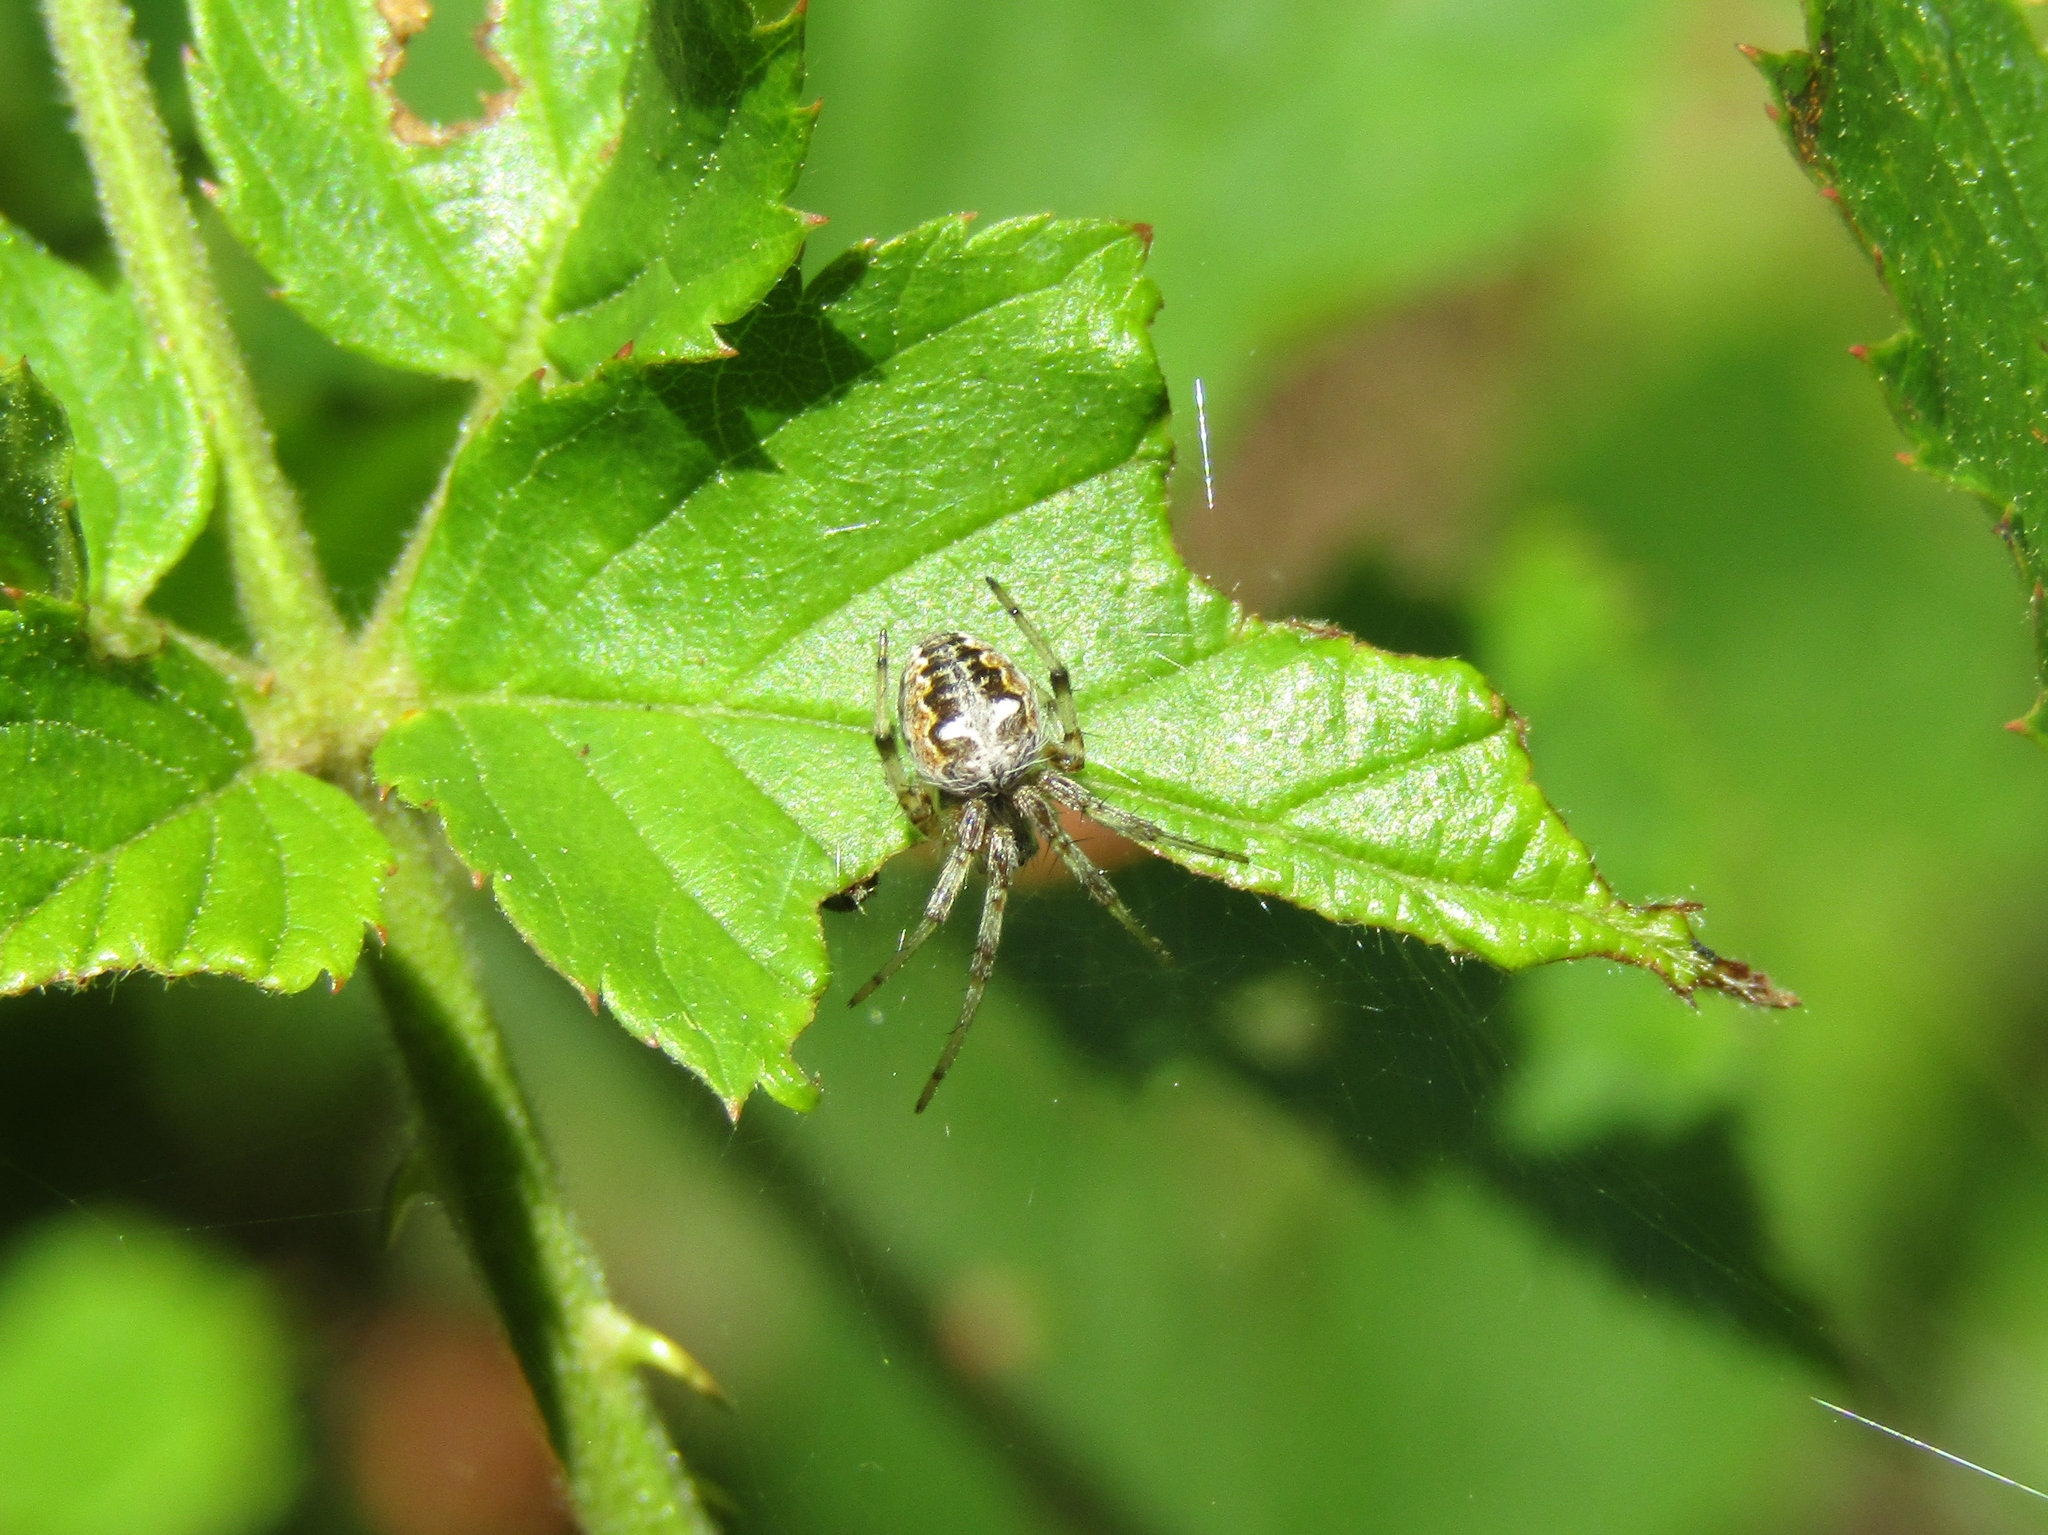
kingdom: Animalia
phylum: Arthropoda
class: Arachnida
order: Araneae
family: Araneidae
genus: Metepeira
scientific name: Metepeira labyrinthea
